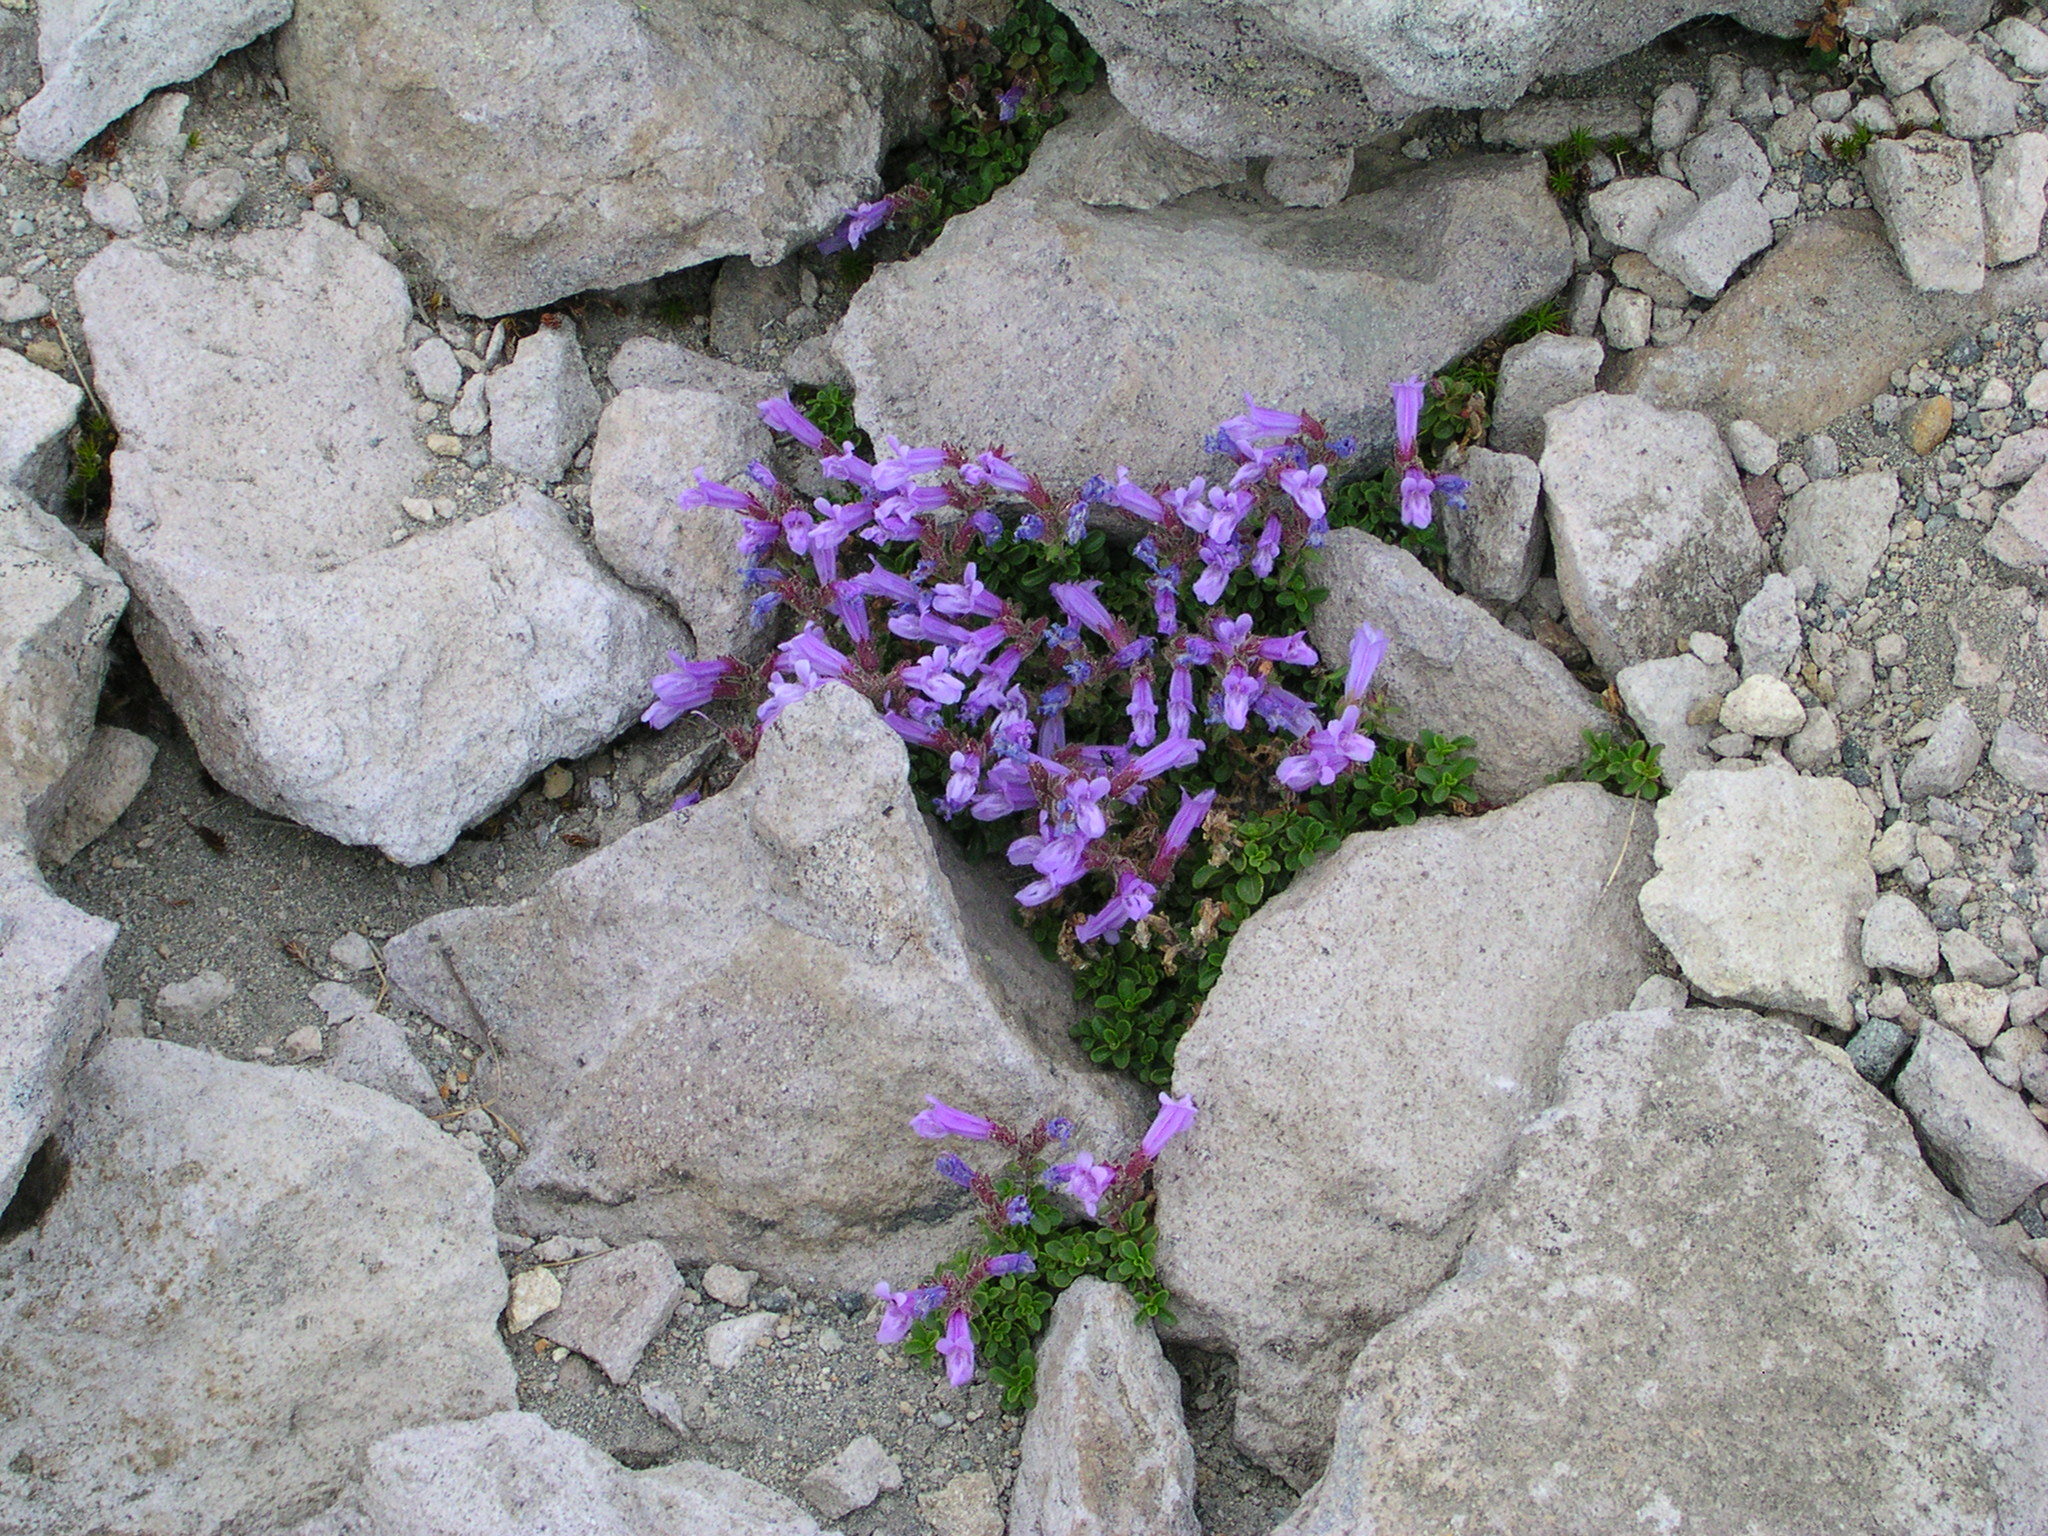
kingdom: Plantae
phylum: Tracheophyta
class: Magnoliopsida
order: Lamiales
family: Plantaginaceae
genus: Penstemon
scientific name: Penstemon davidsonii
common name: Davidson's penstemon
